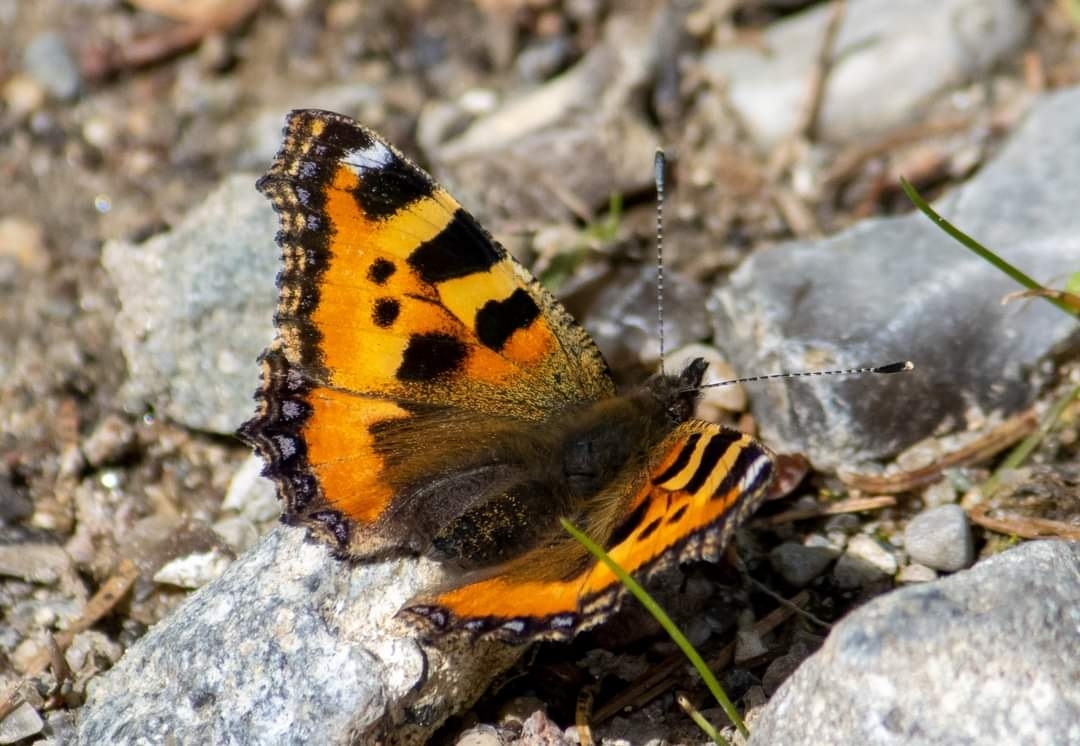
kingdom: Animalia
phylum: Arthropoda
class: Insecta
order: Lepidoptera
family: Nymphalidae
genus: Aglais
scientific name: Aglais urticae
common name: Small tortoiseshell
